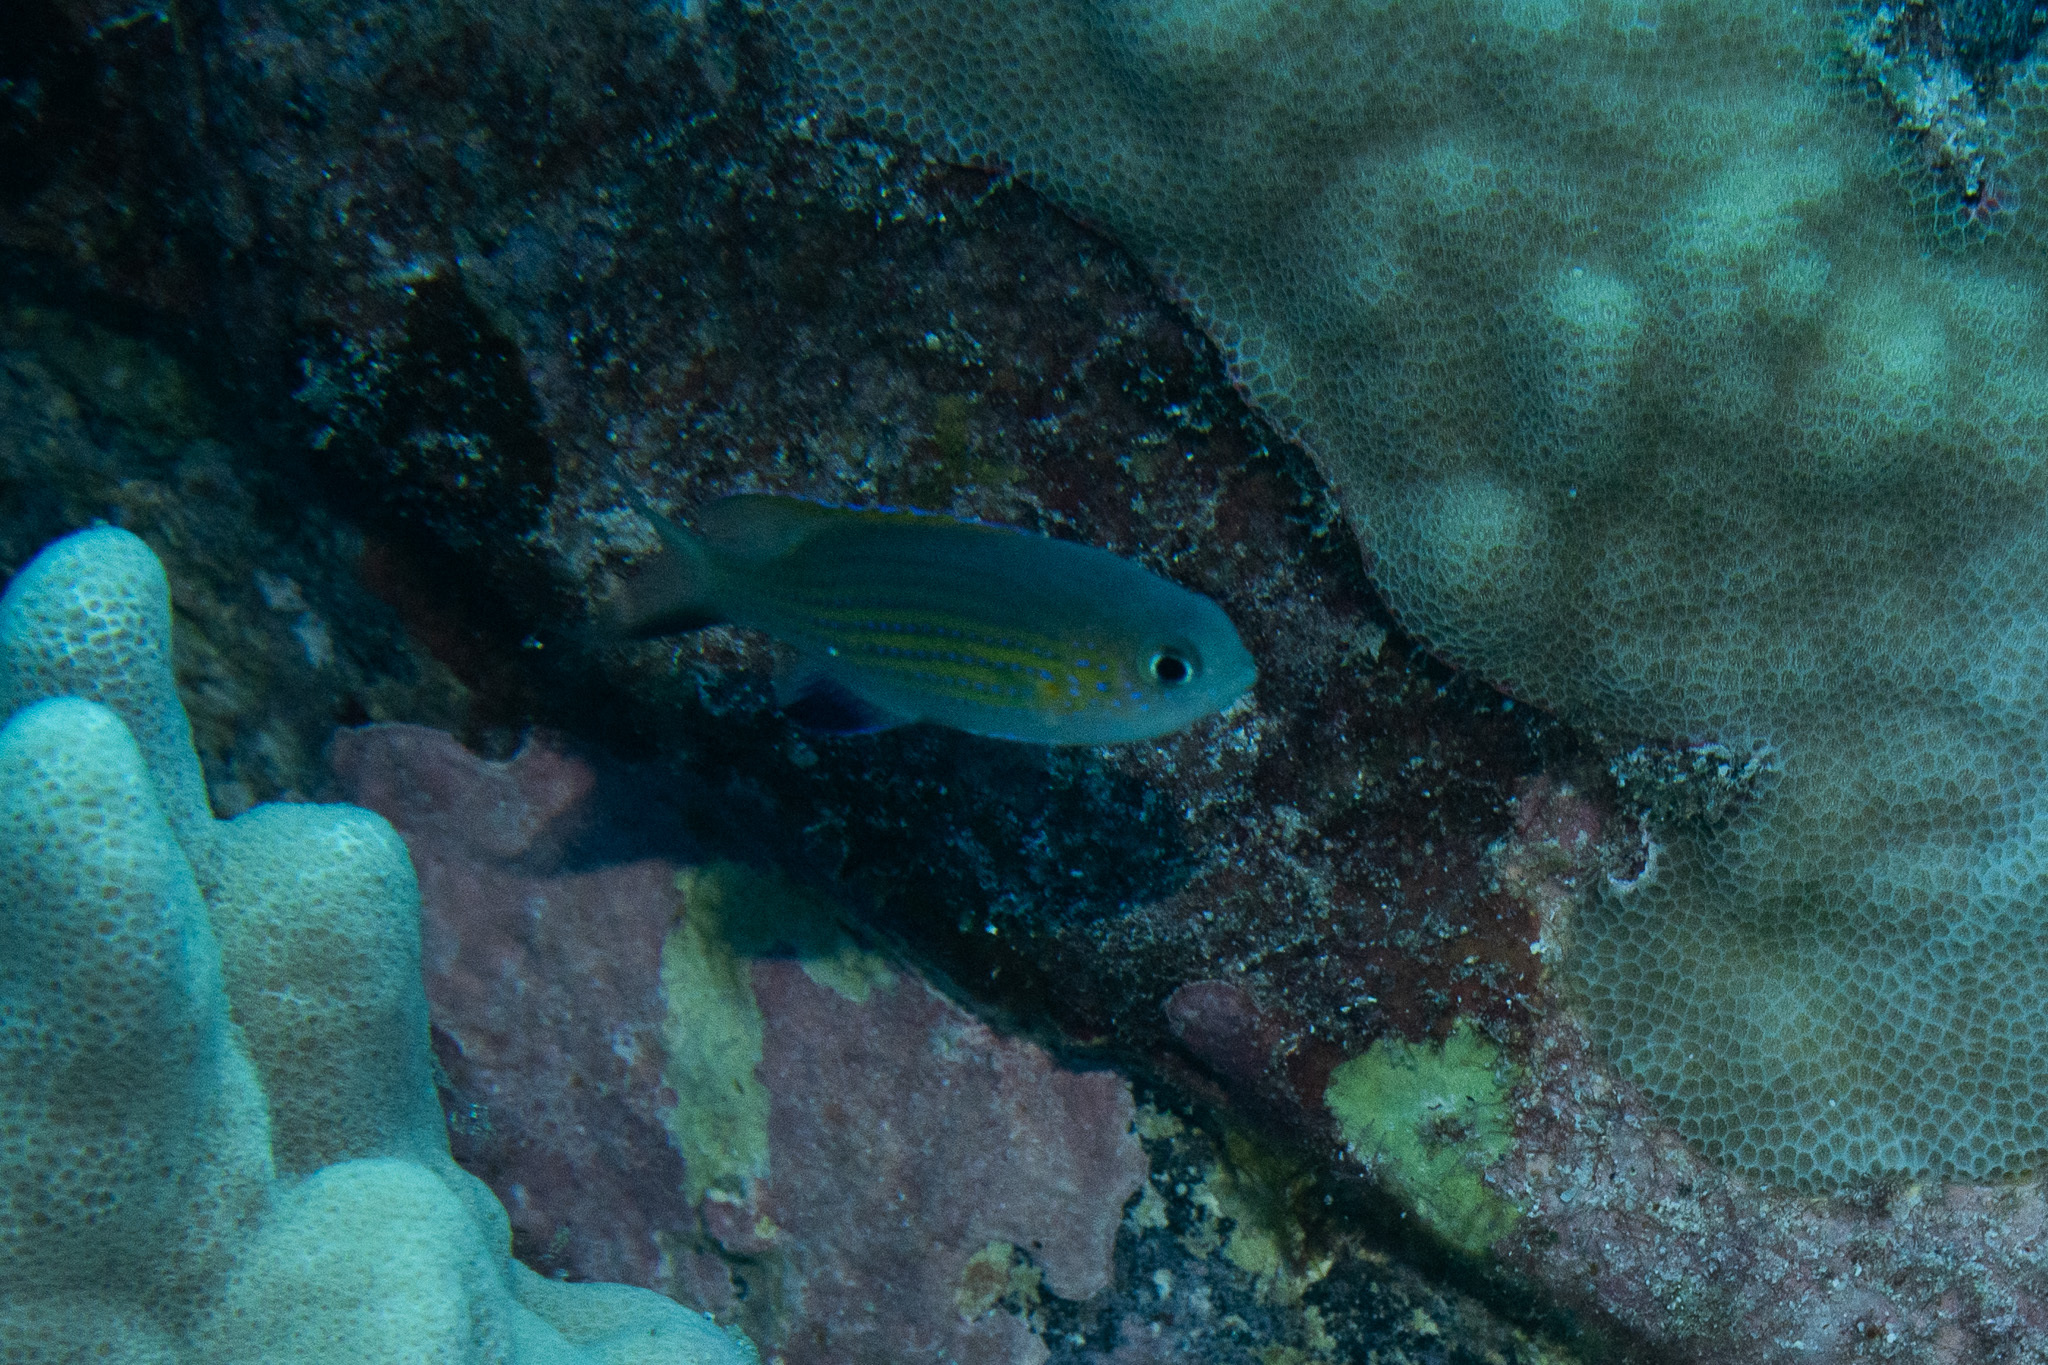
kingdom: Animalia
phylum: Chordata
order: Perciformes
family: Pomacentridae
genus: Chromis
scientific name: Chromis vanderbilti
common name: Vanderbilt's chromis
